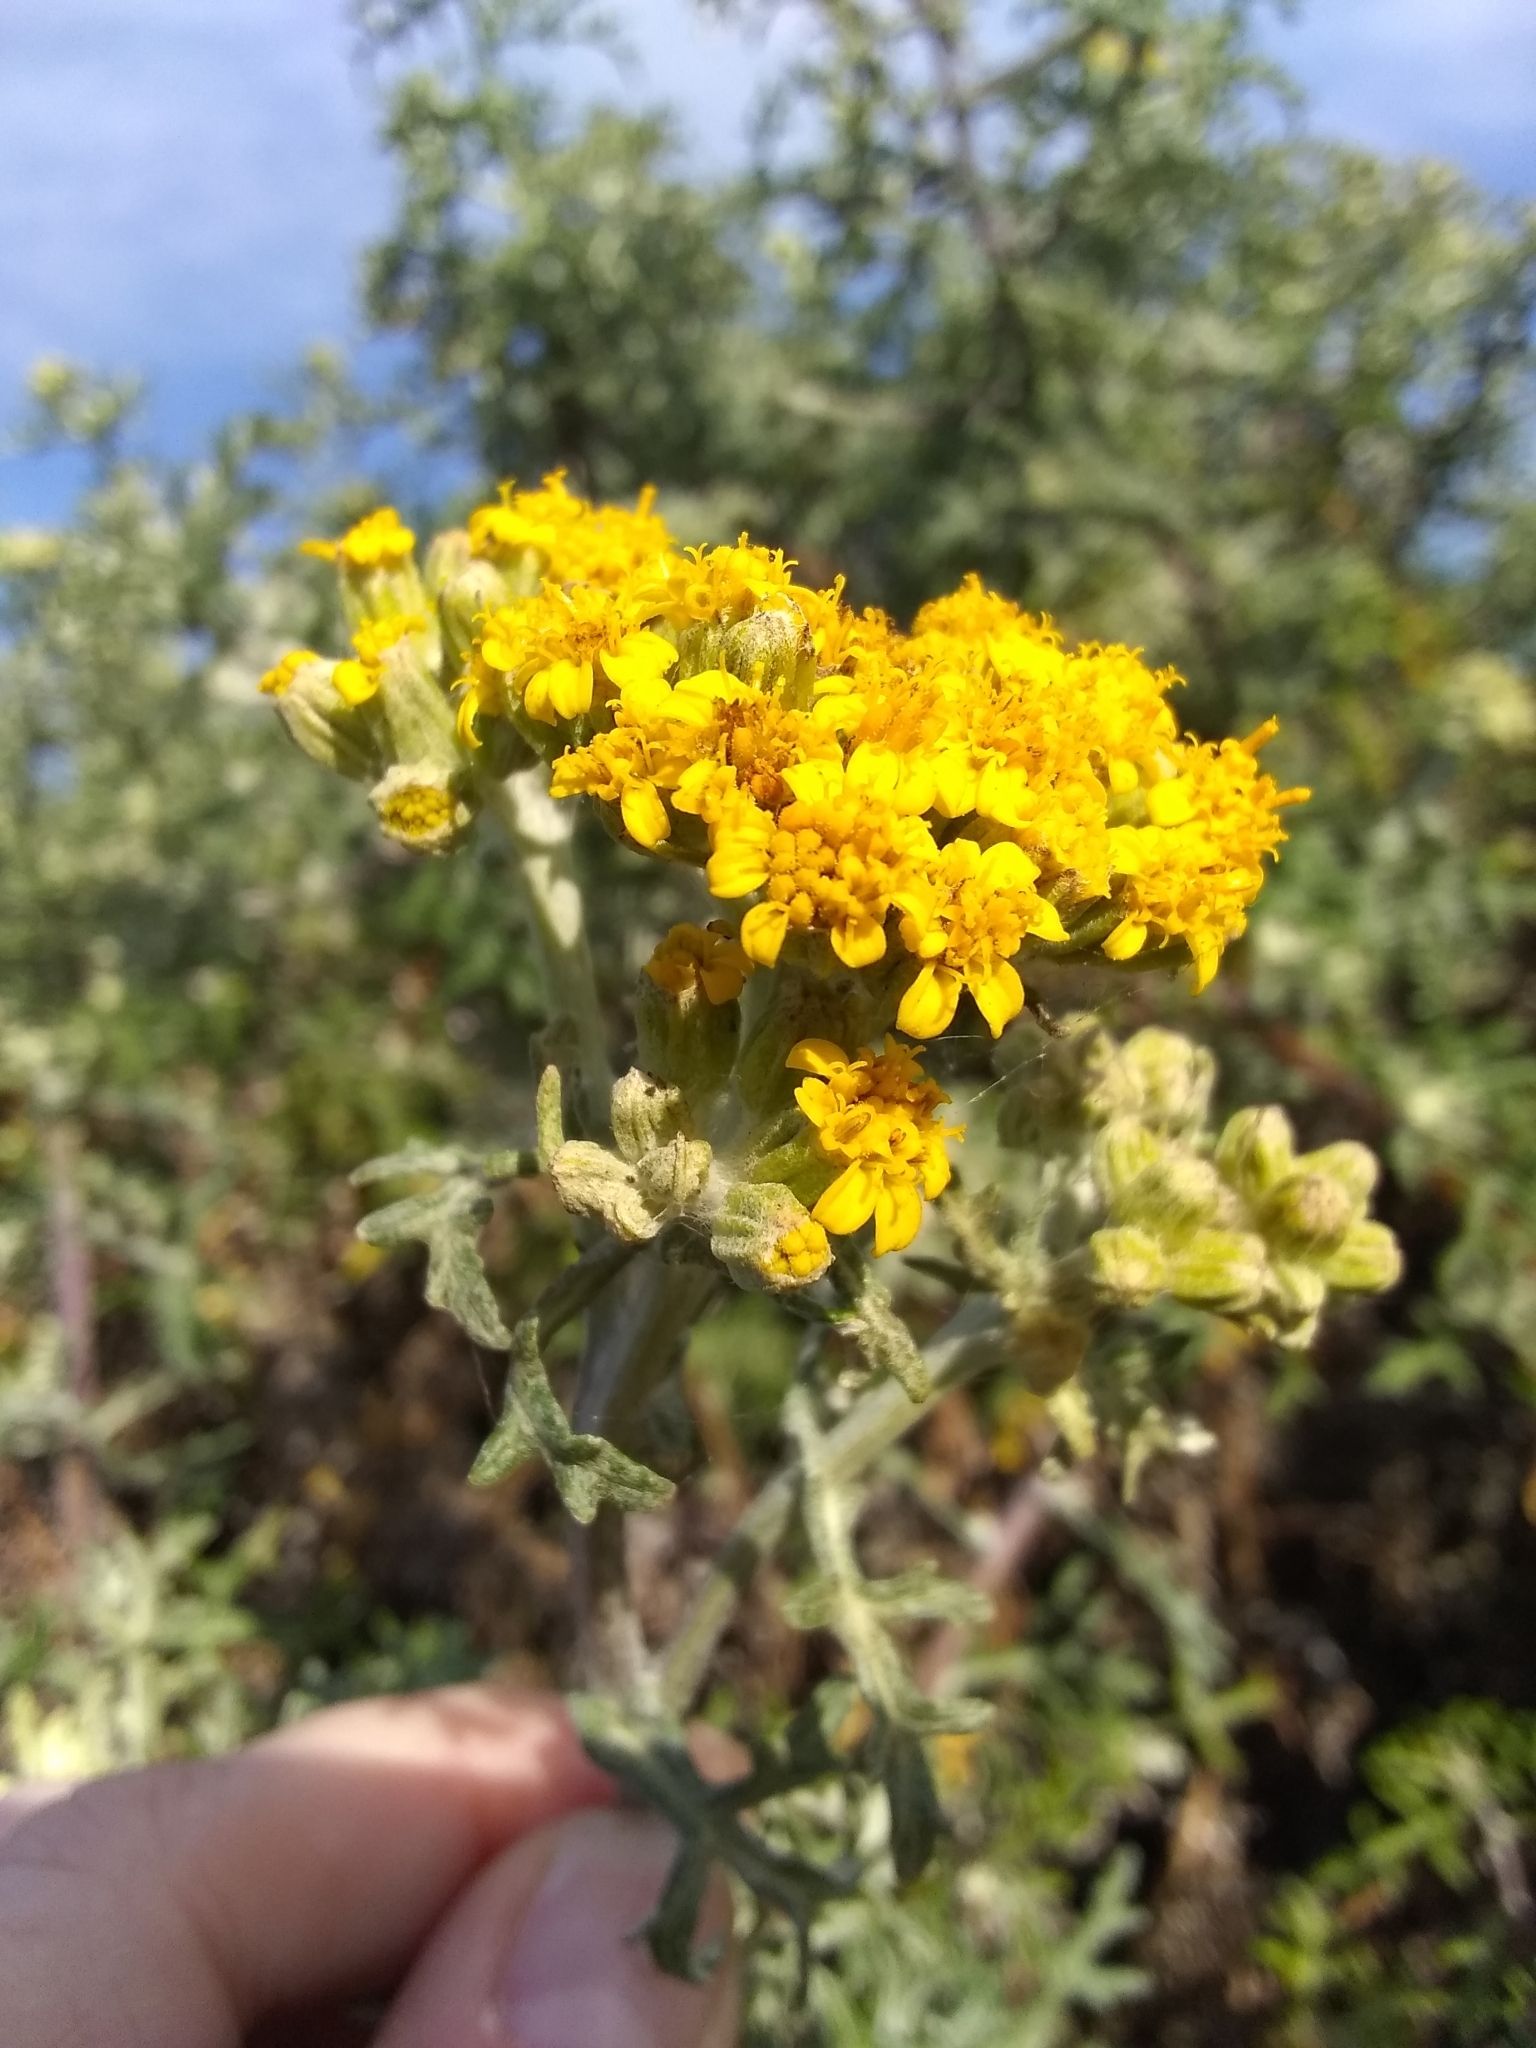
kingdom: Plantae
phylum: Tracheophyta
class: Magnoliopsida
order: Asterales
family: Asteraceae
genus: Eriophyllum
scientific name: Eriophyllum staechadifolium
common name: Lizardtail
